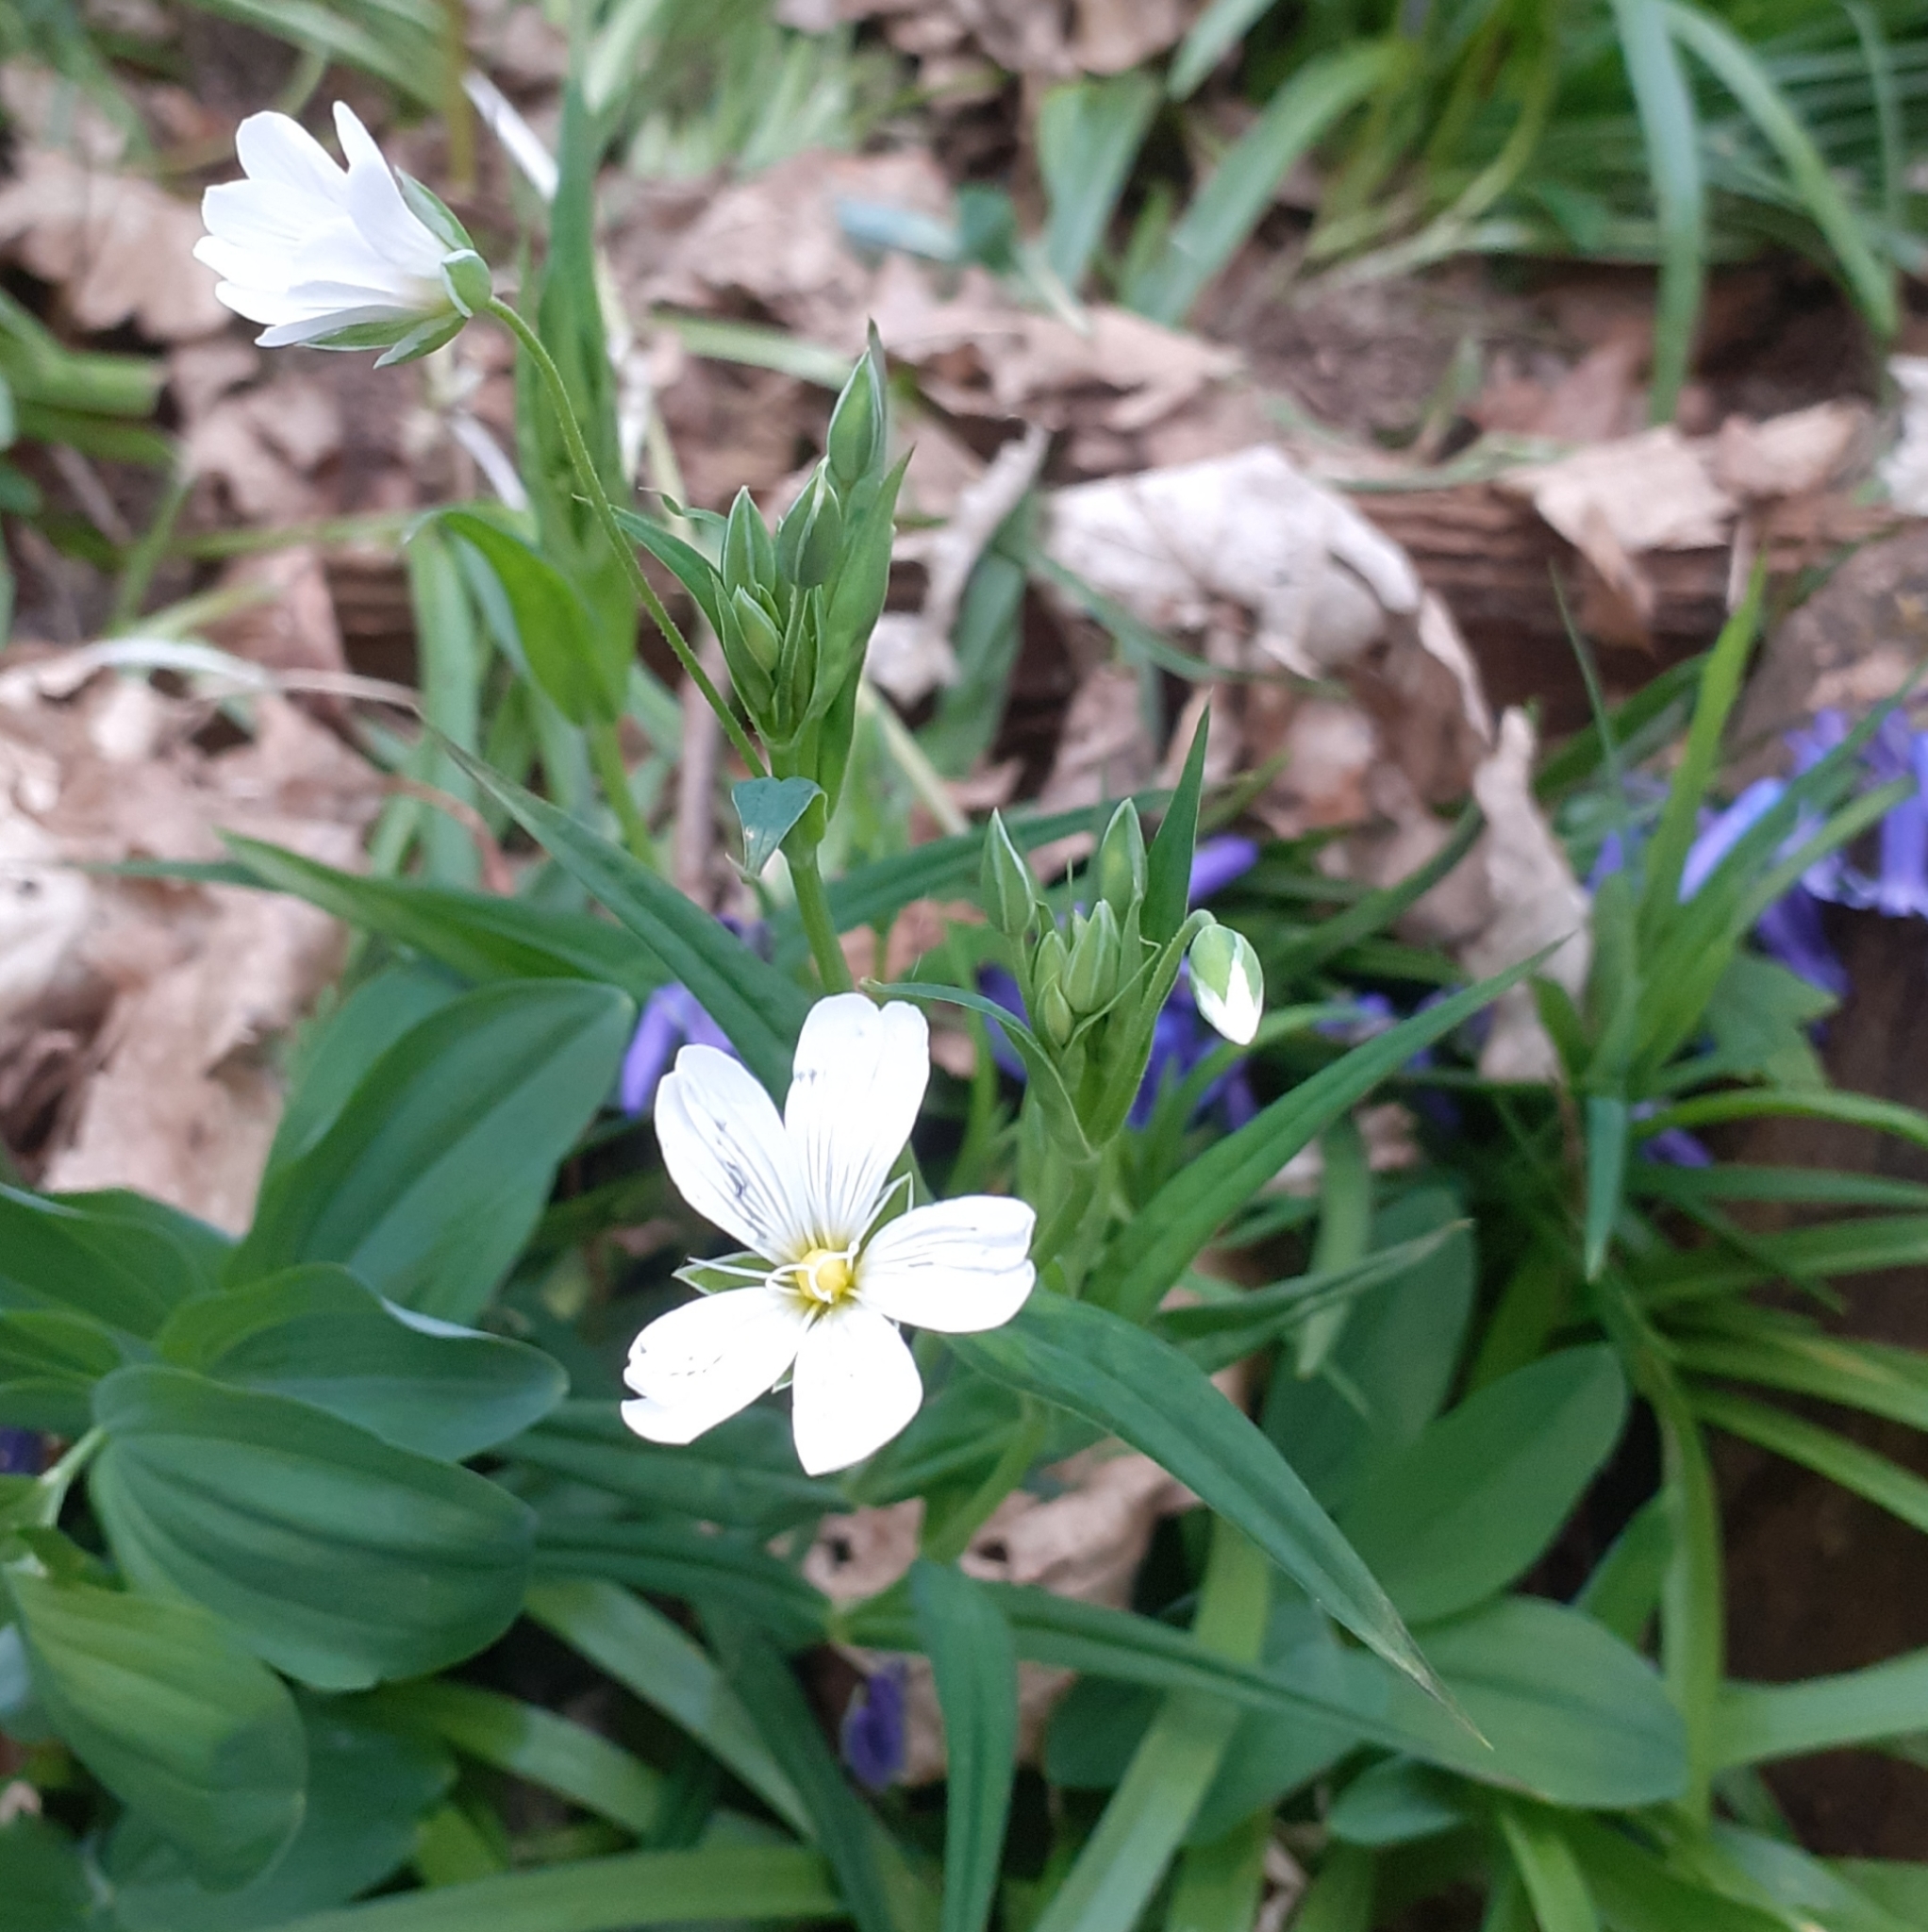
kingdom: Plantae
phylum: Tracheophyta
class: Magnoliopsida
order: Caryophyllales
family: Caryophyllaceae
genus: Rabelera
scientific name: Rabelera holostea
